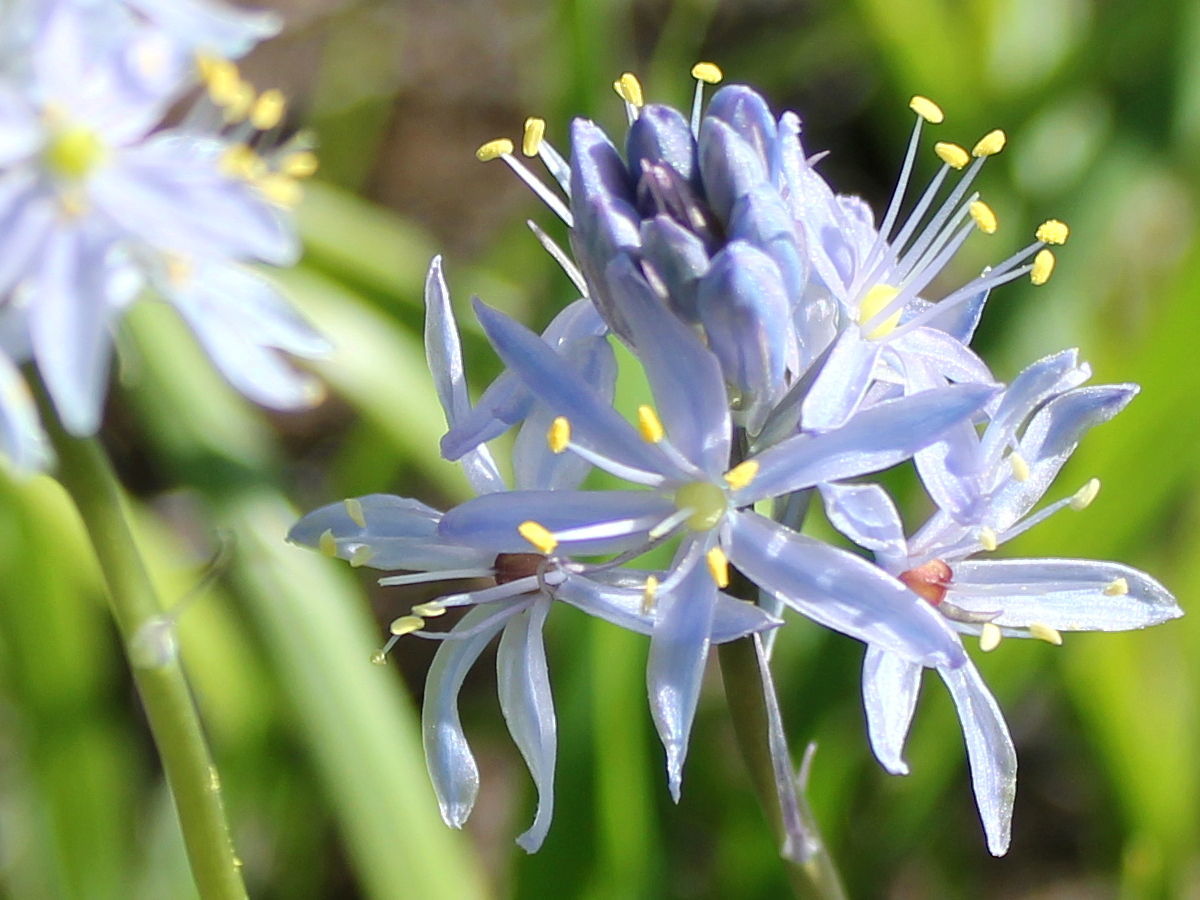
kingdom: Plantae
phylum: Tracheophyta
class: Liliopsida
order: Asparagales
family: Asparagaceae
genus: Camassia
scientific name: Camassia scilloides
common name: Wild hyacinth
